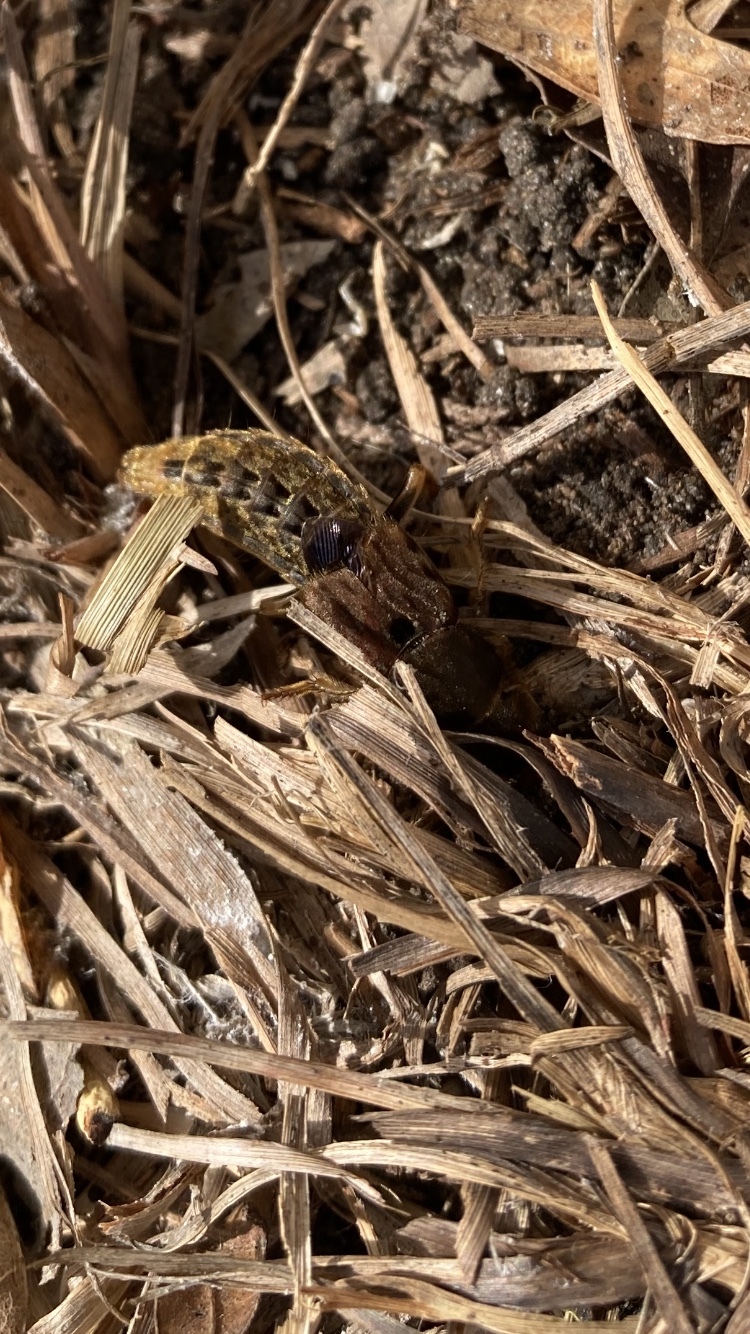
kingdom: Animalia
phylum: Arthropoda
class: Insecta
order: Coleoptera
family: Staphylinidae
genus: Platydracus
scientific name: Platydracus maculosus
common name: Brown rove beetle
